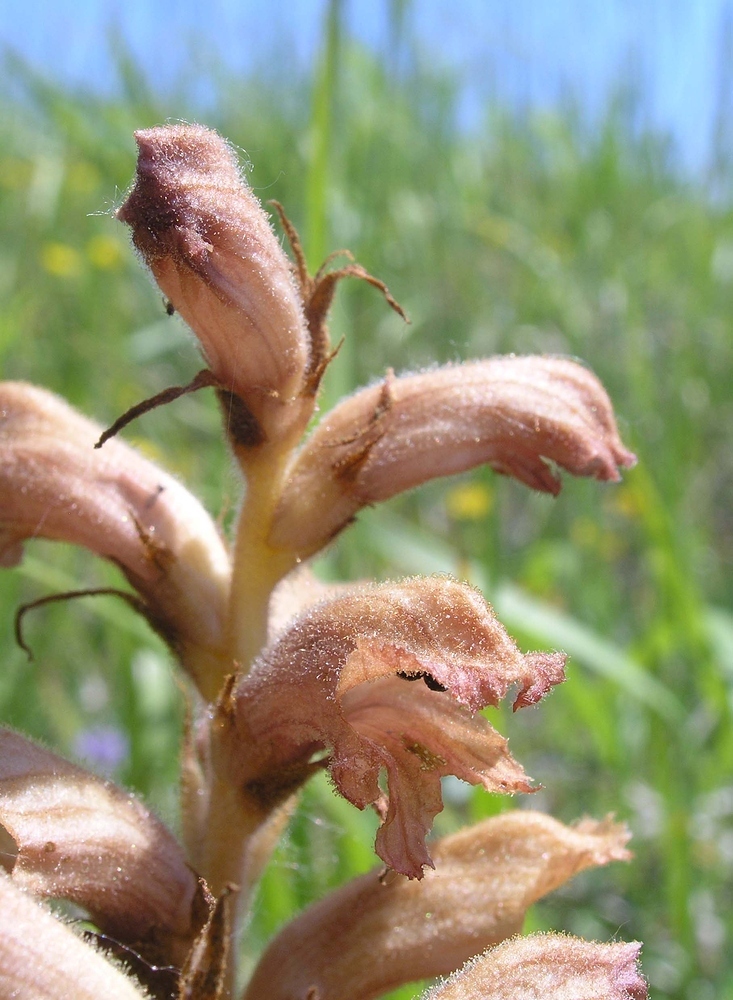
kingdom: Plantae
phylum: Tracheophyta
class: Magnoliopsida
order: Lamiales
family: Orobanchaceae
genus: Orobanche
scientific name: Orobanche teucrii
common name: Germander broomrape
